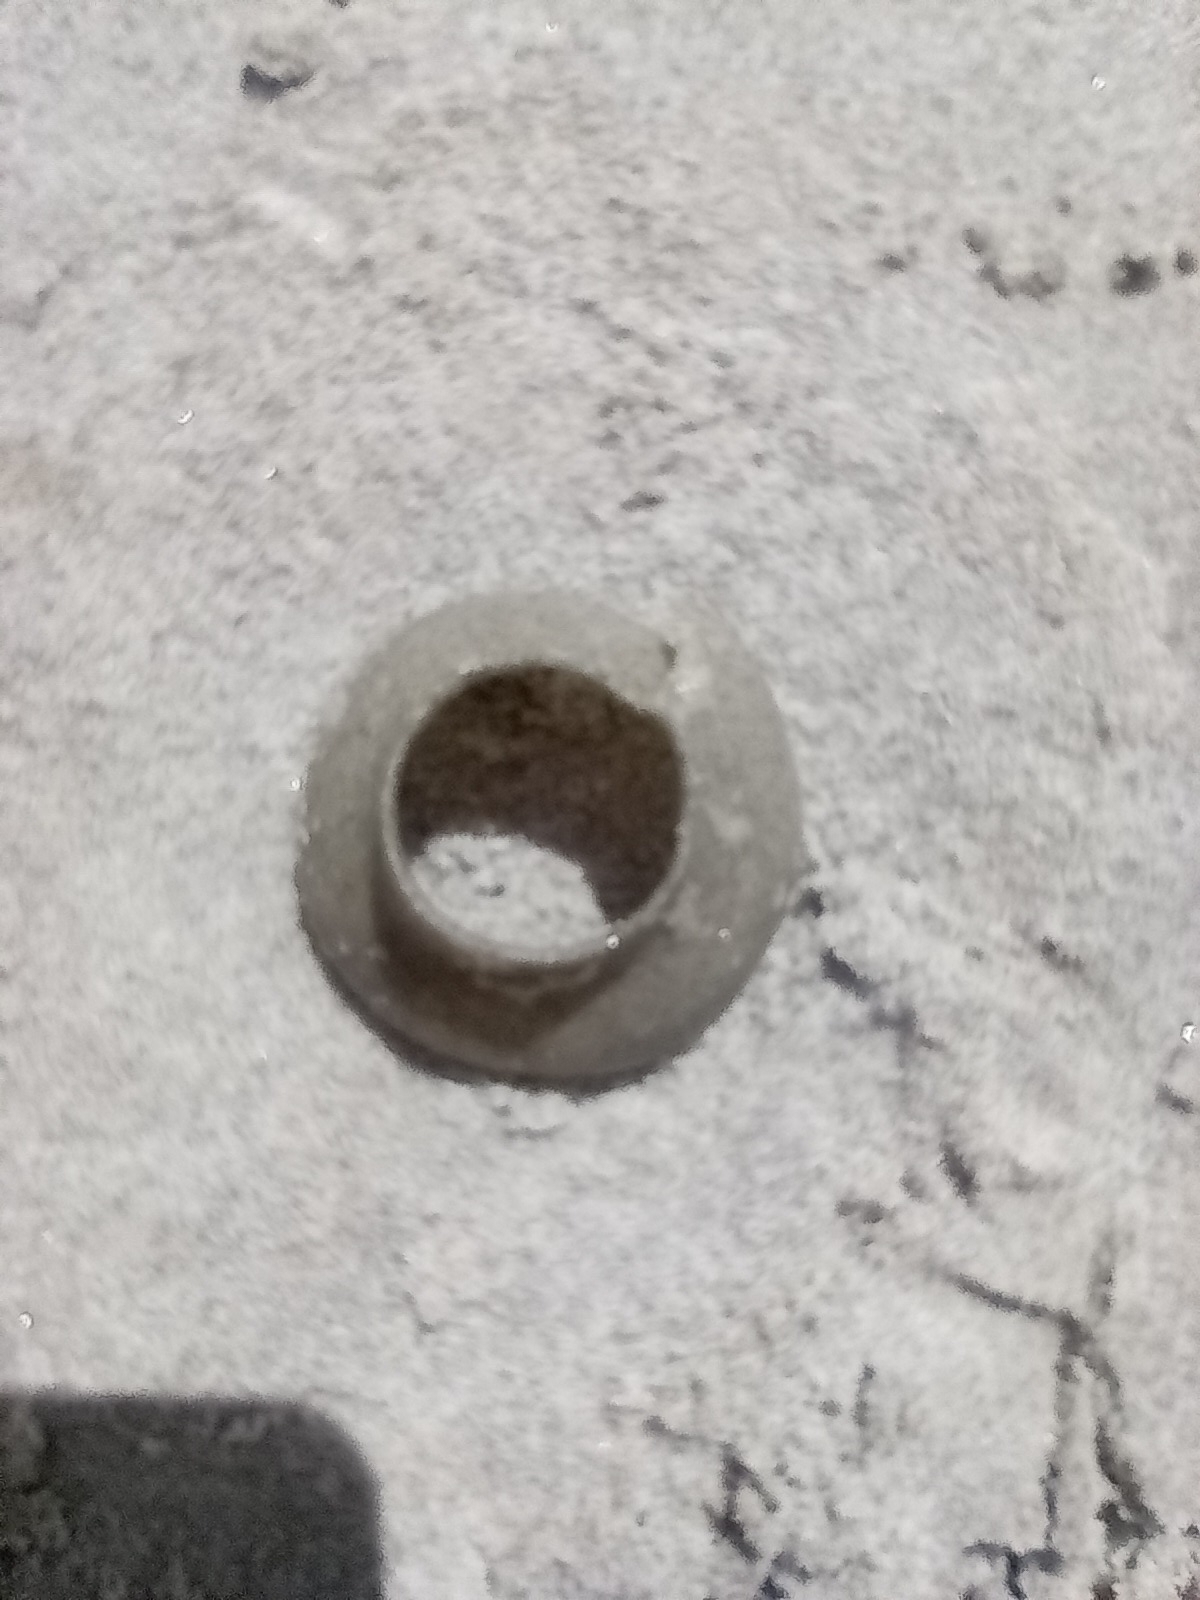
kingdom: Animalia
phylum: Mollusca
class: Gastropoda
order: Littorinimorpha
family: Naticidae
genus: Tanea
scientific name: Tanea zelandica
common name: New zealand moonsnail
